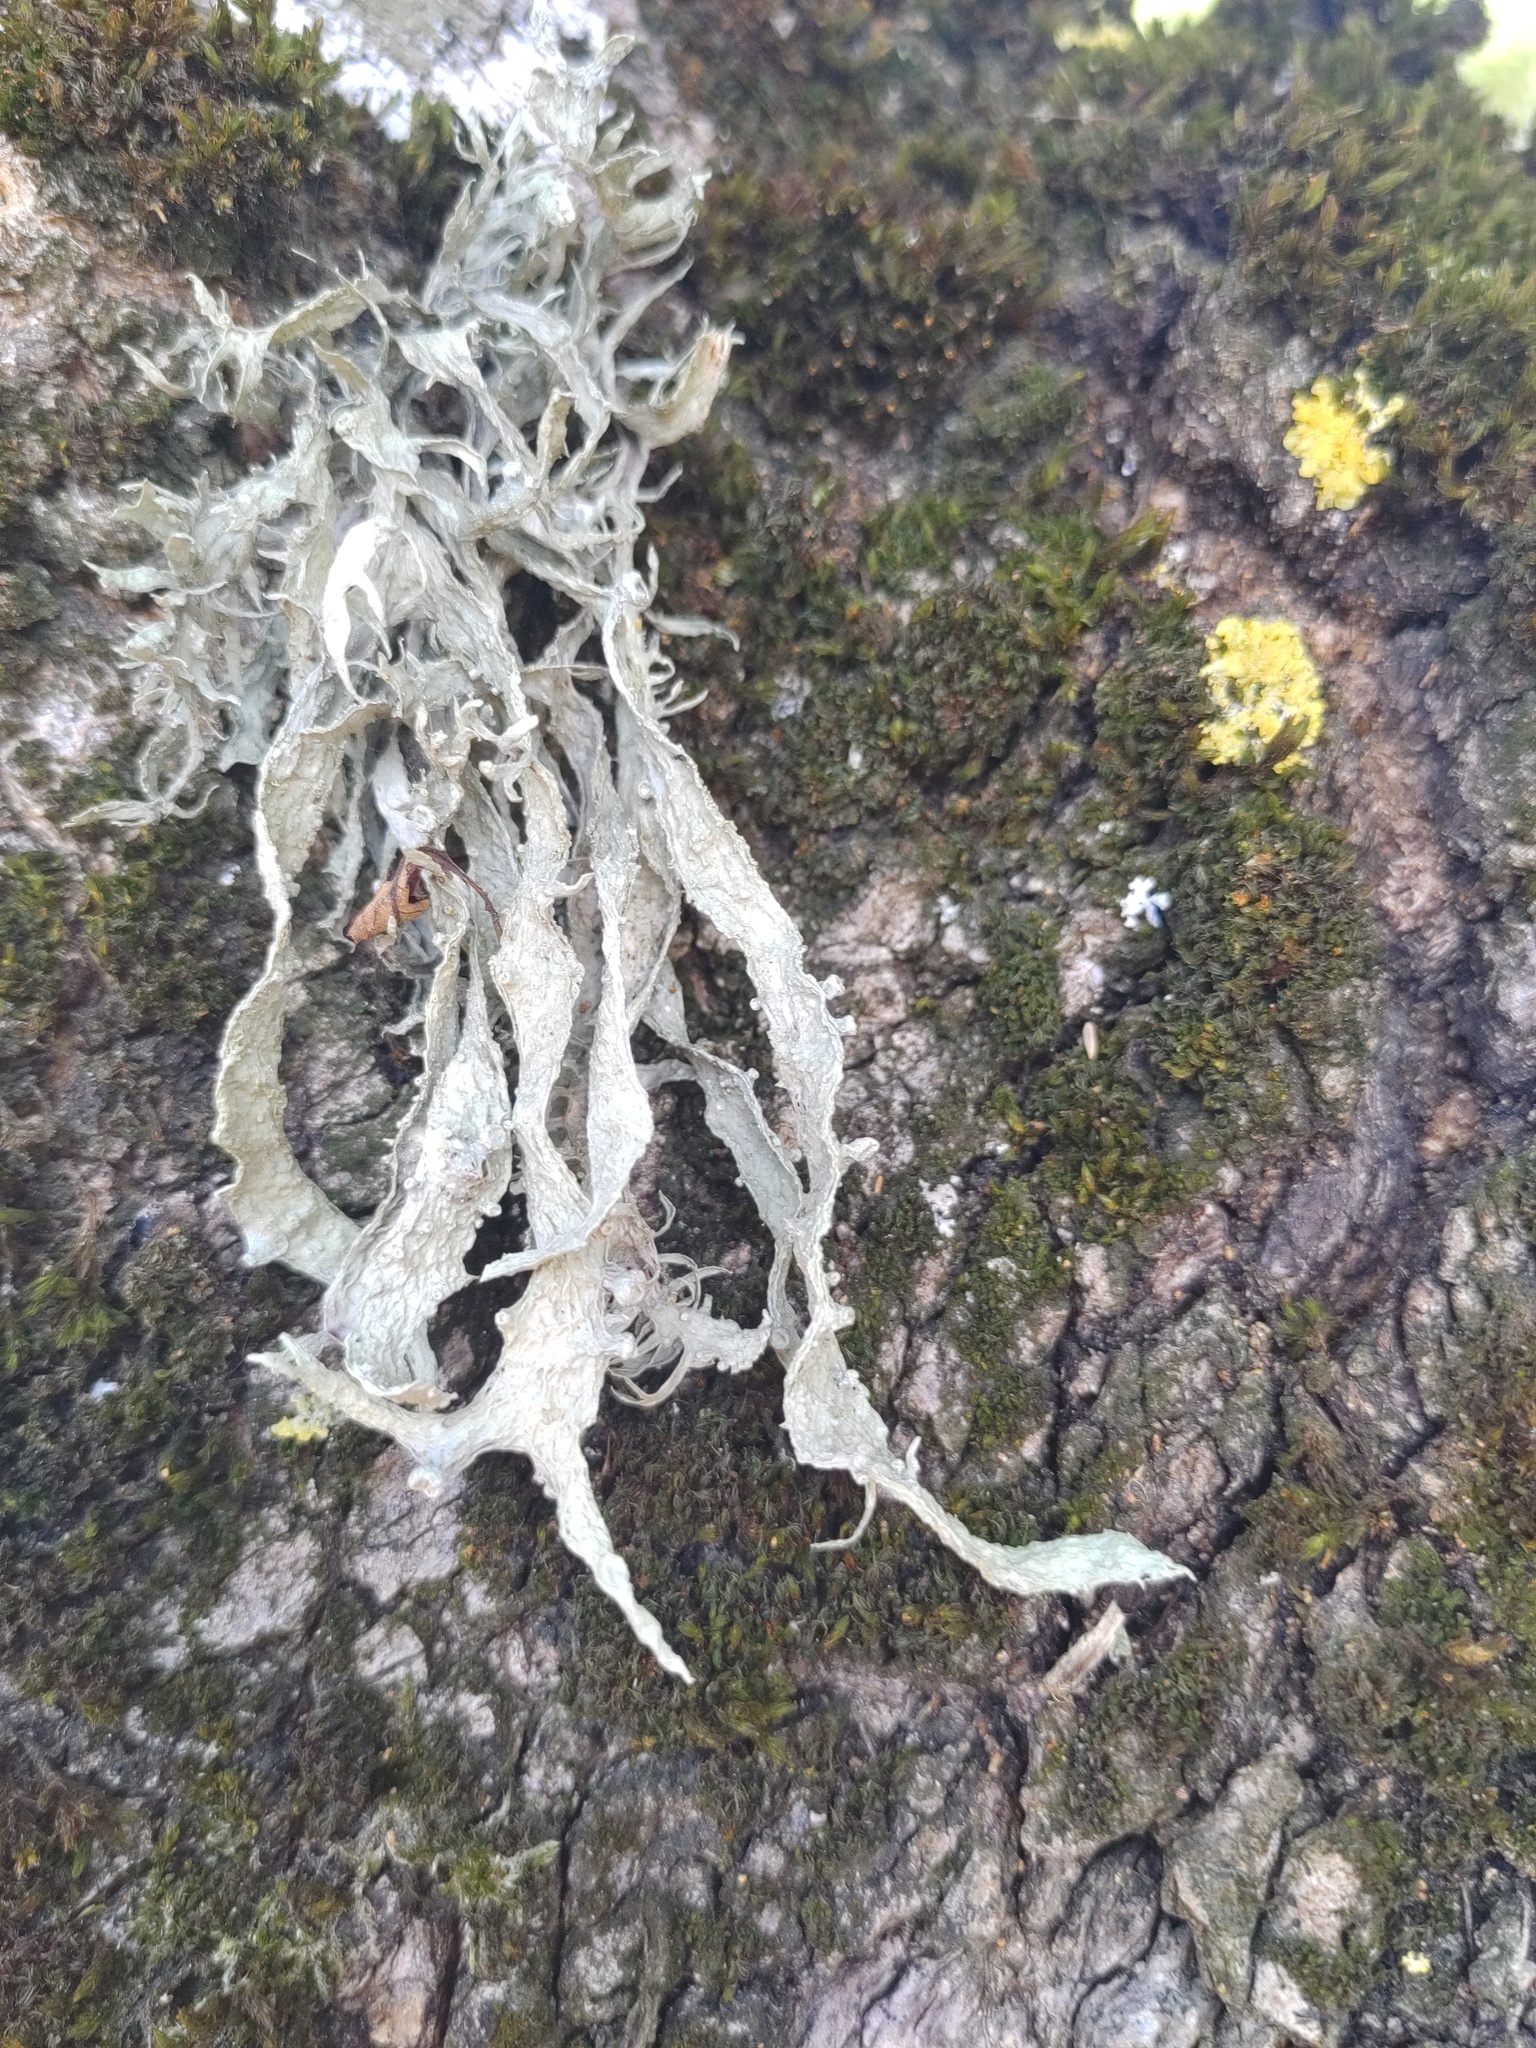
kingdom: Fungi
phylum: Ascomycota
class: Lecanoromycetes
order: Lecanorales
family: Ramalinaceae
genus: Ramalina
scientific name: Ramalina fraxinea
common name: Cartilage lichen
